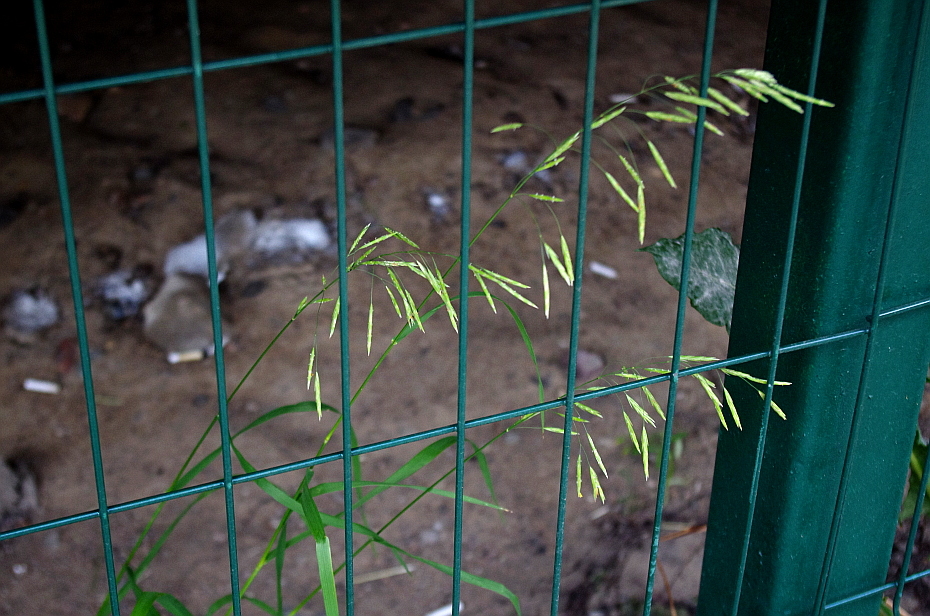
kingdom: Plantae
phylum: Tracheophyta
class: Liliopsida
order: Poales
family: Poaceae
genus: Bromus
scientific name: Bromus inermis
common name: Smooth brome
